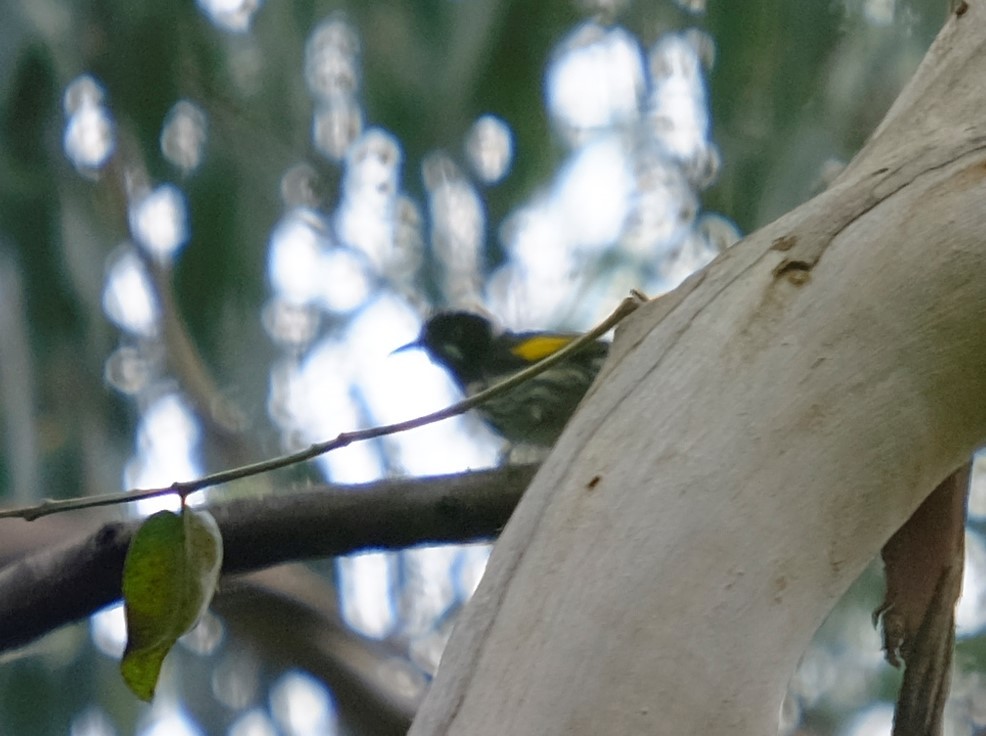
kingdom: Animalia
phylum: Chordata
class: Aves
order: Passeriformes
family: Meliphagidae
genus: Phylidonyris
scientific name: Phylidonyris novaehollandiae
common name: New holland honeyeater
